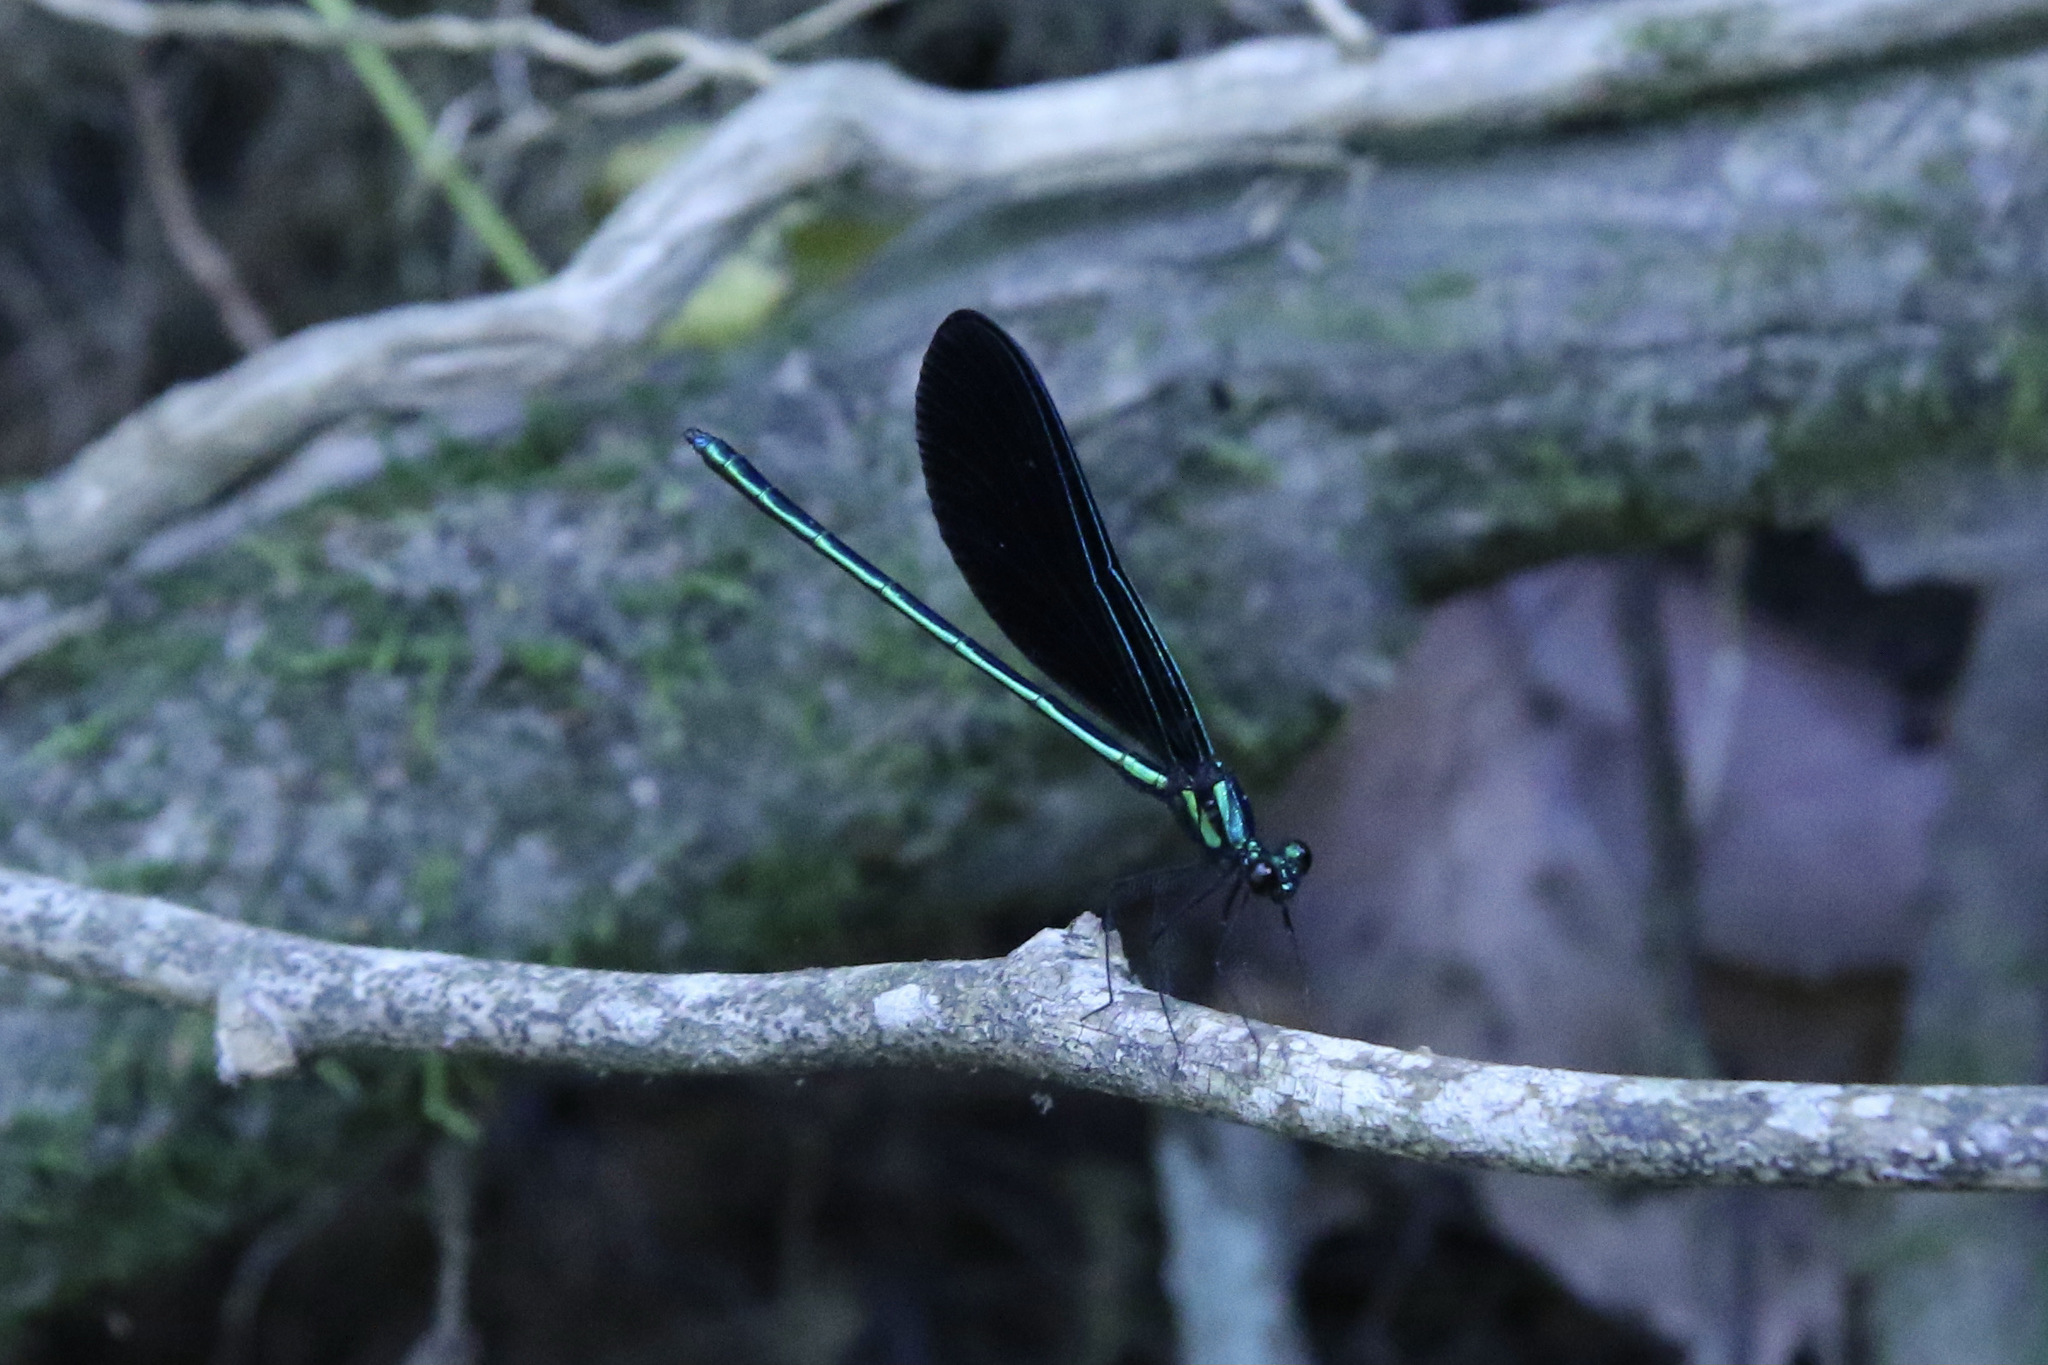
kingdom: Animalia
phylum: Arthropoda
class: Insecta
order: Odonata
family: Calopterygidae
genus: Calopteryx
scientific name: Calopteryx maculata
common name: Ebony jewelwing
